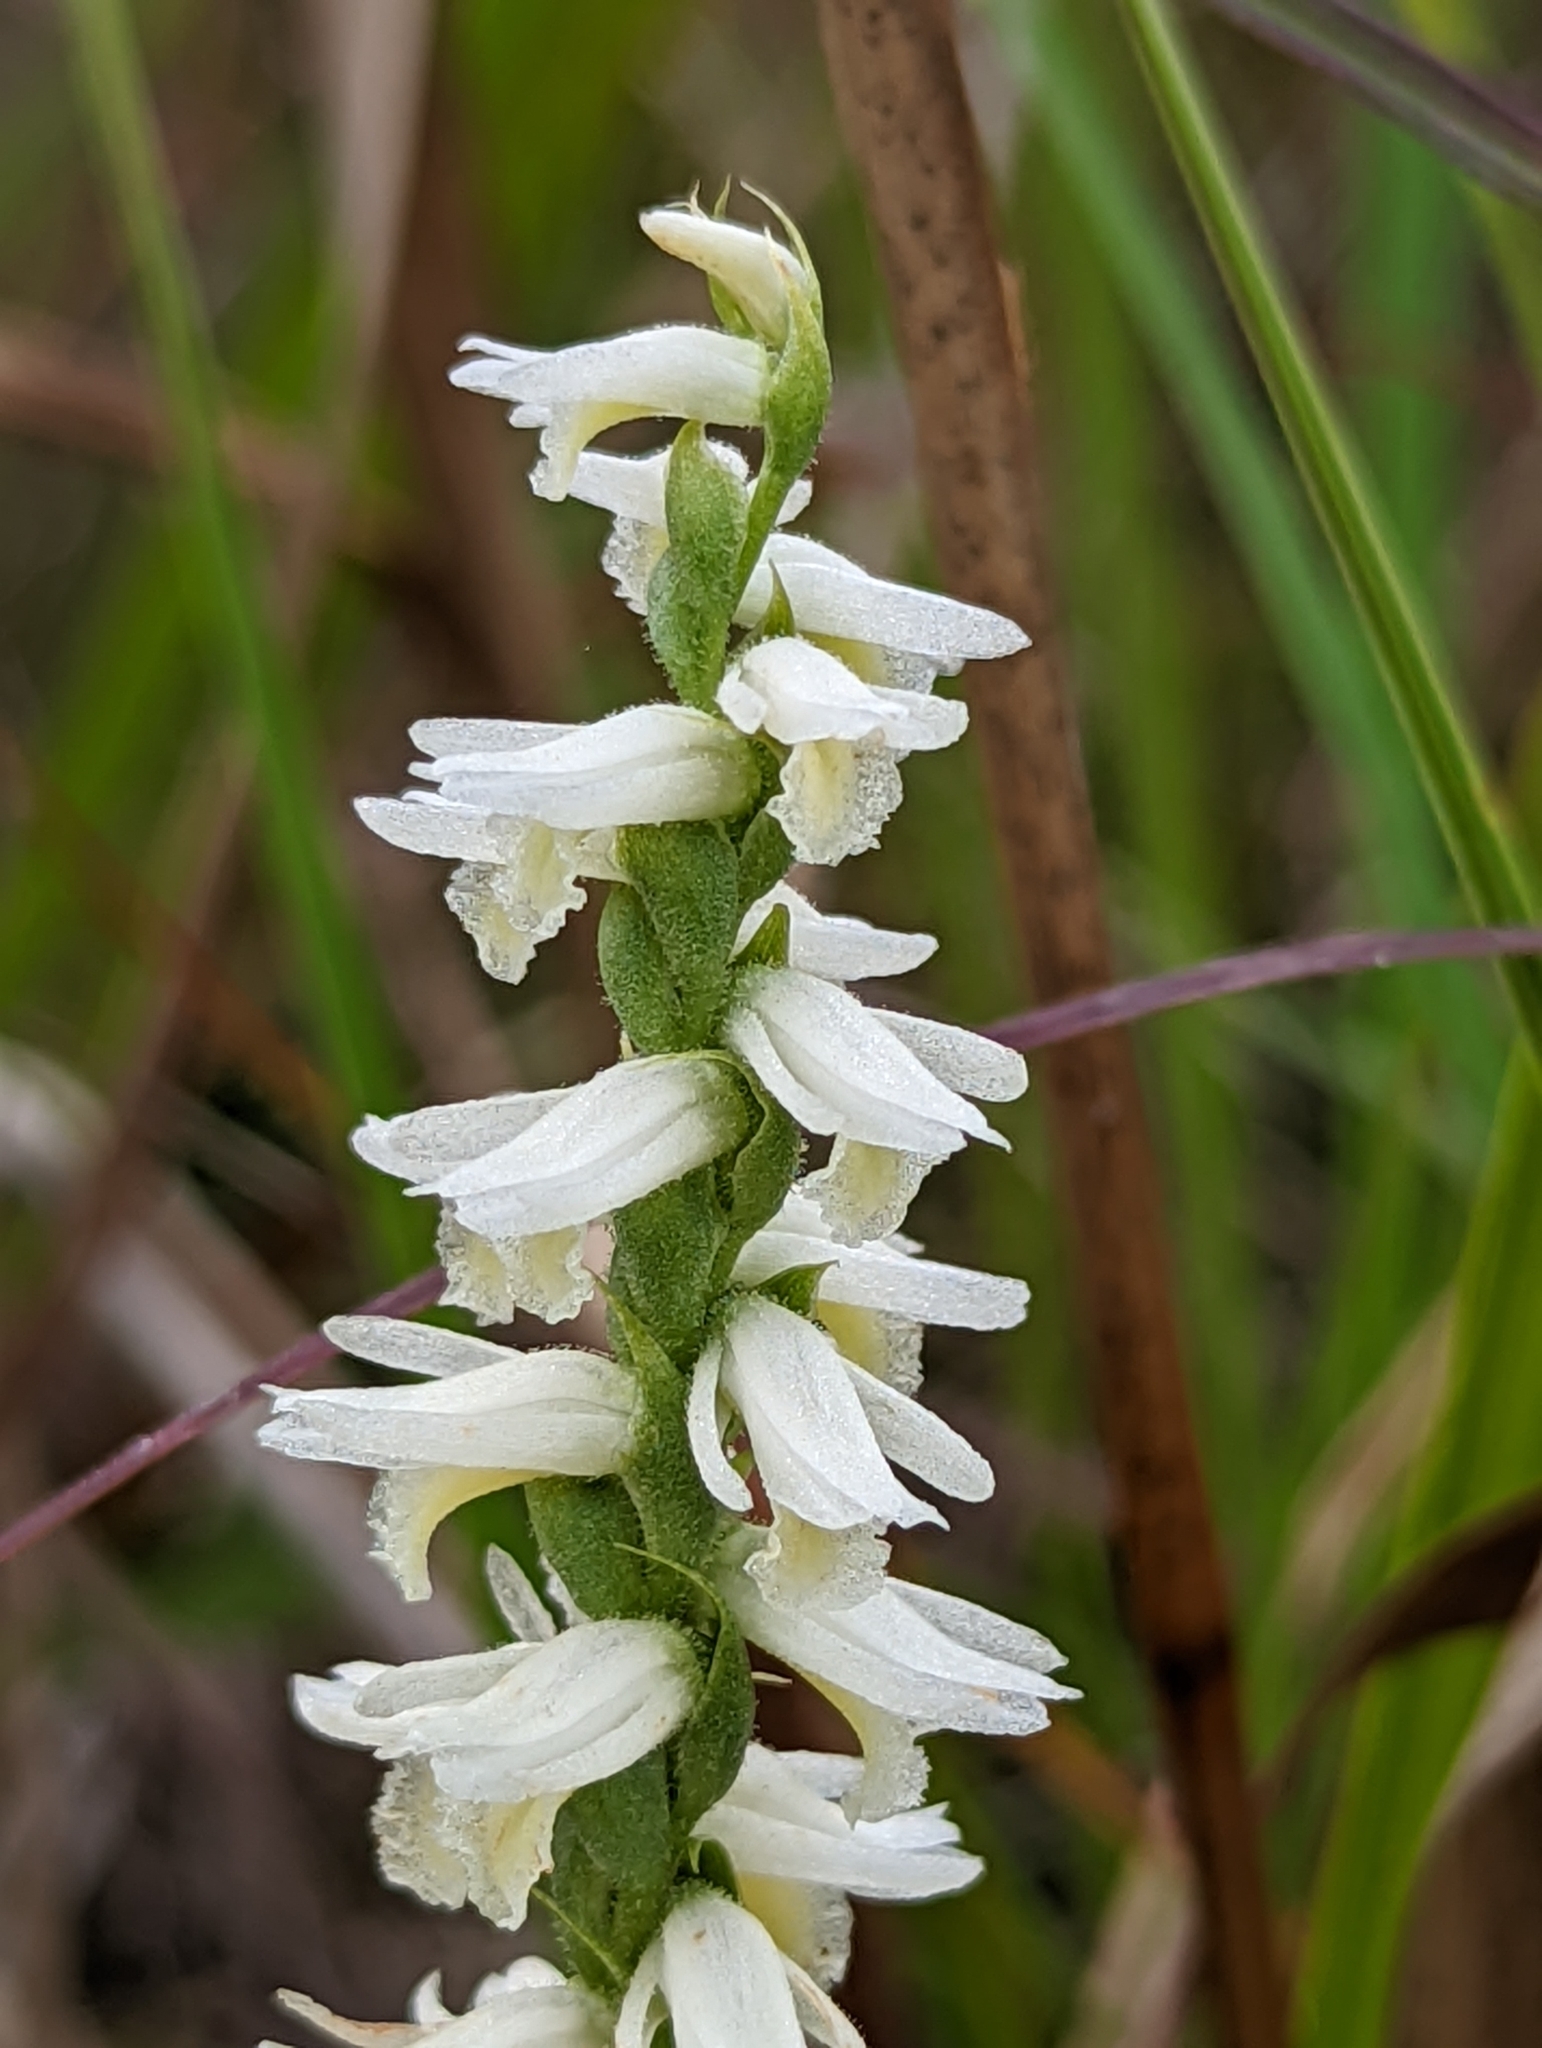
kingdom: Plantae
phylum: Tracheophyta
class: Liliopsida
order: Asparagales
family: Orchidaceae
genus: Spiranthes
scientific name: Spiranthes magnicamporum
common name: Great plains ladies'-tresses
